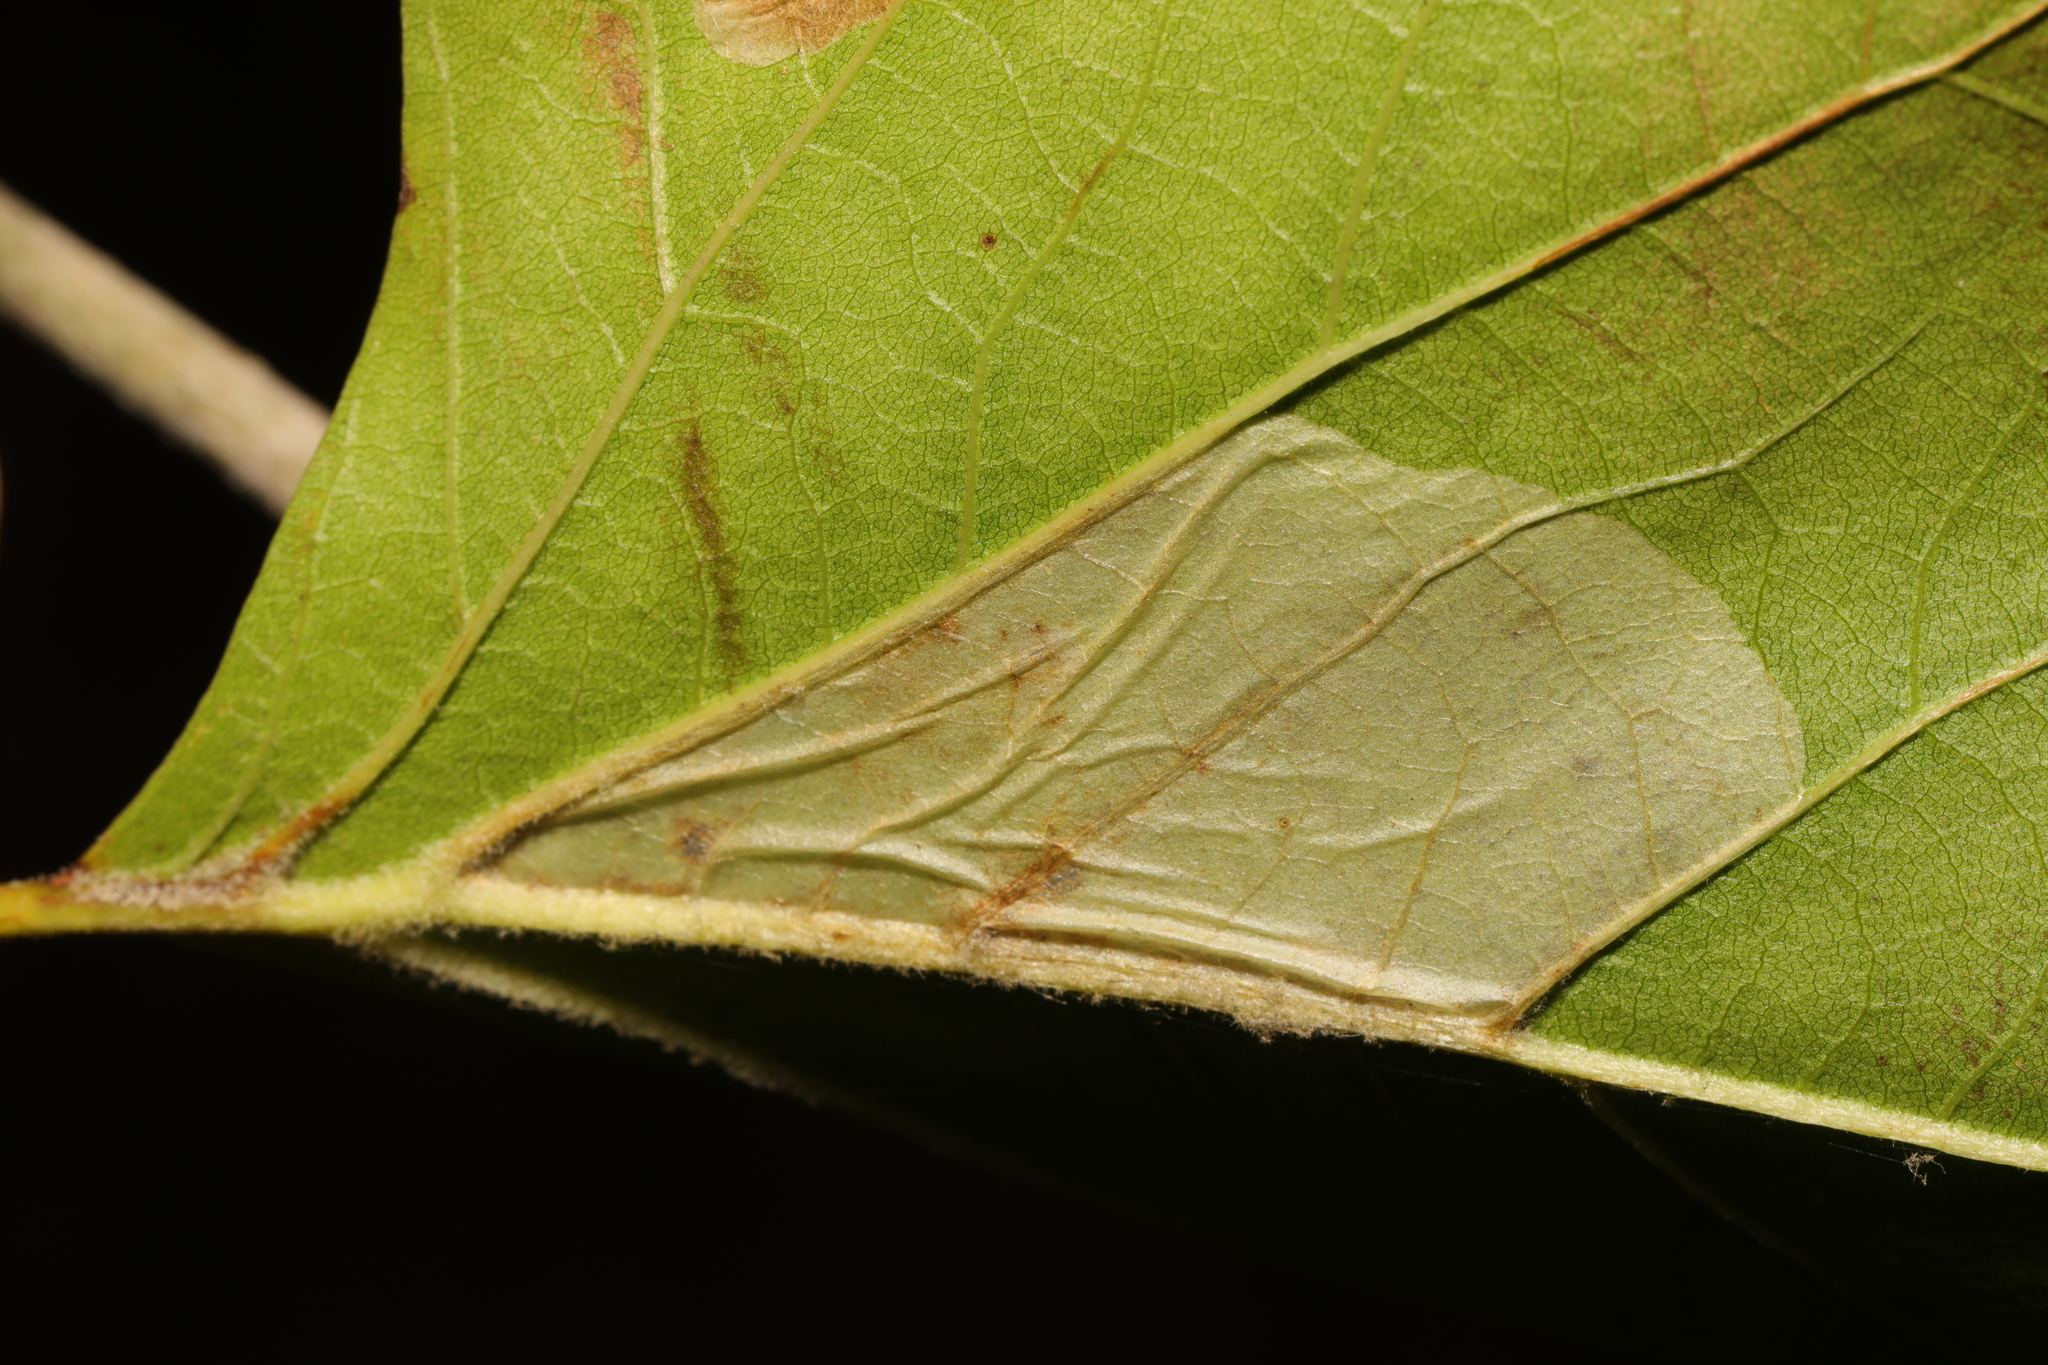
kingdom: Animalia
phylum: Arthropoda
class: Insecta
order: Lepidoptera
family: Gracillariidae
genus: Phyllonorycter
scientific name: Phyllonorycter platani
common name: London midget
